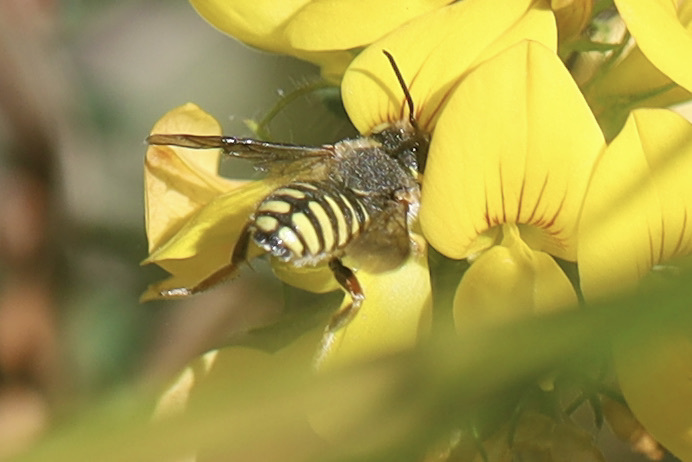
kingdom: Animalia
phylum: Arthropoda
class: Insecta
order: Hymenoptera
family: Megachilidae
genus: Anthidium
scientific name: Anthidium oblongatum
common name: Oblong wool carder bee
